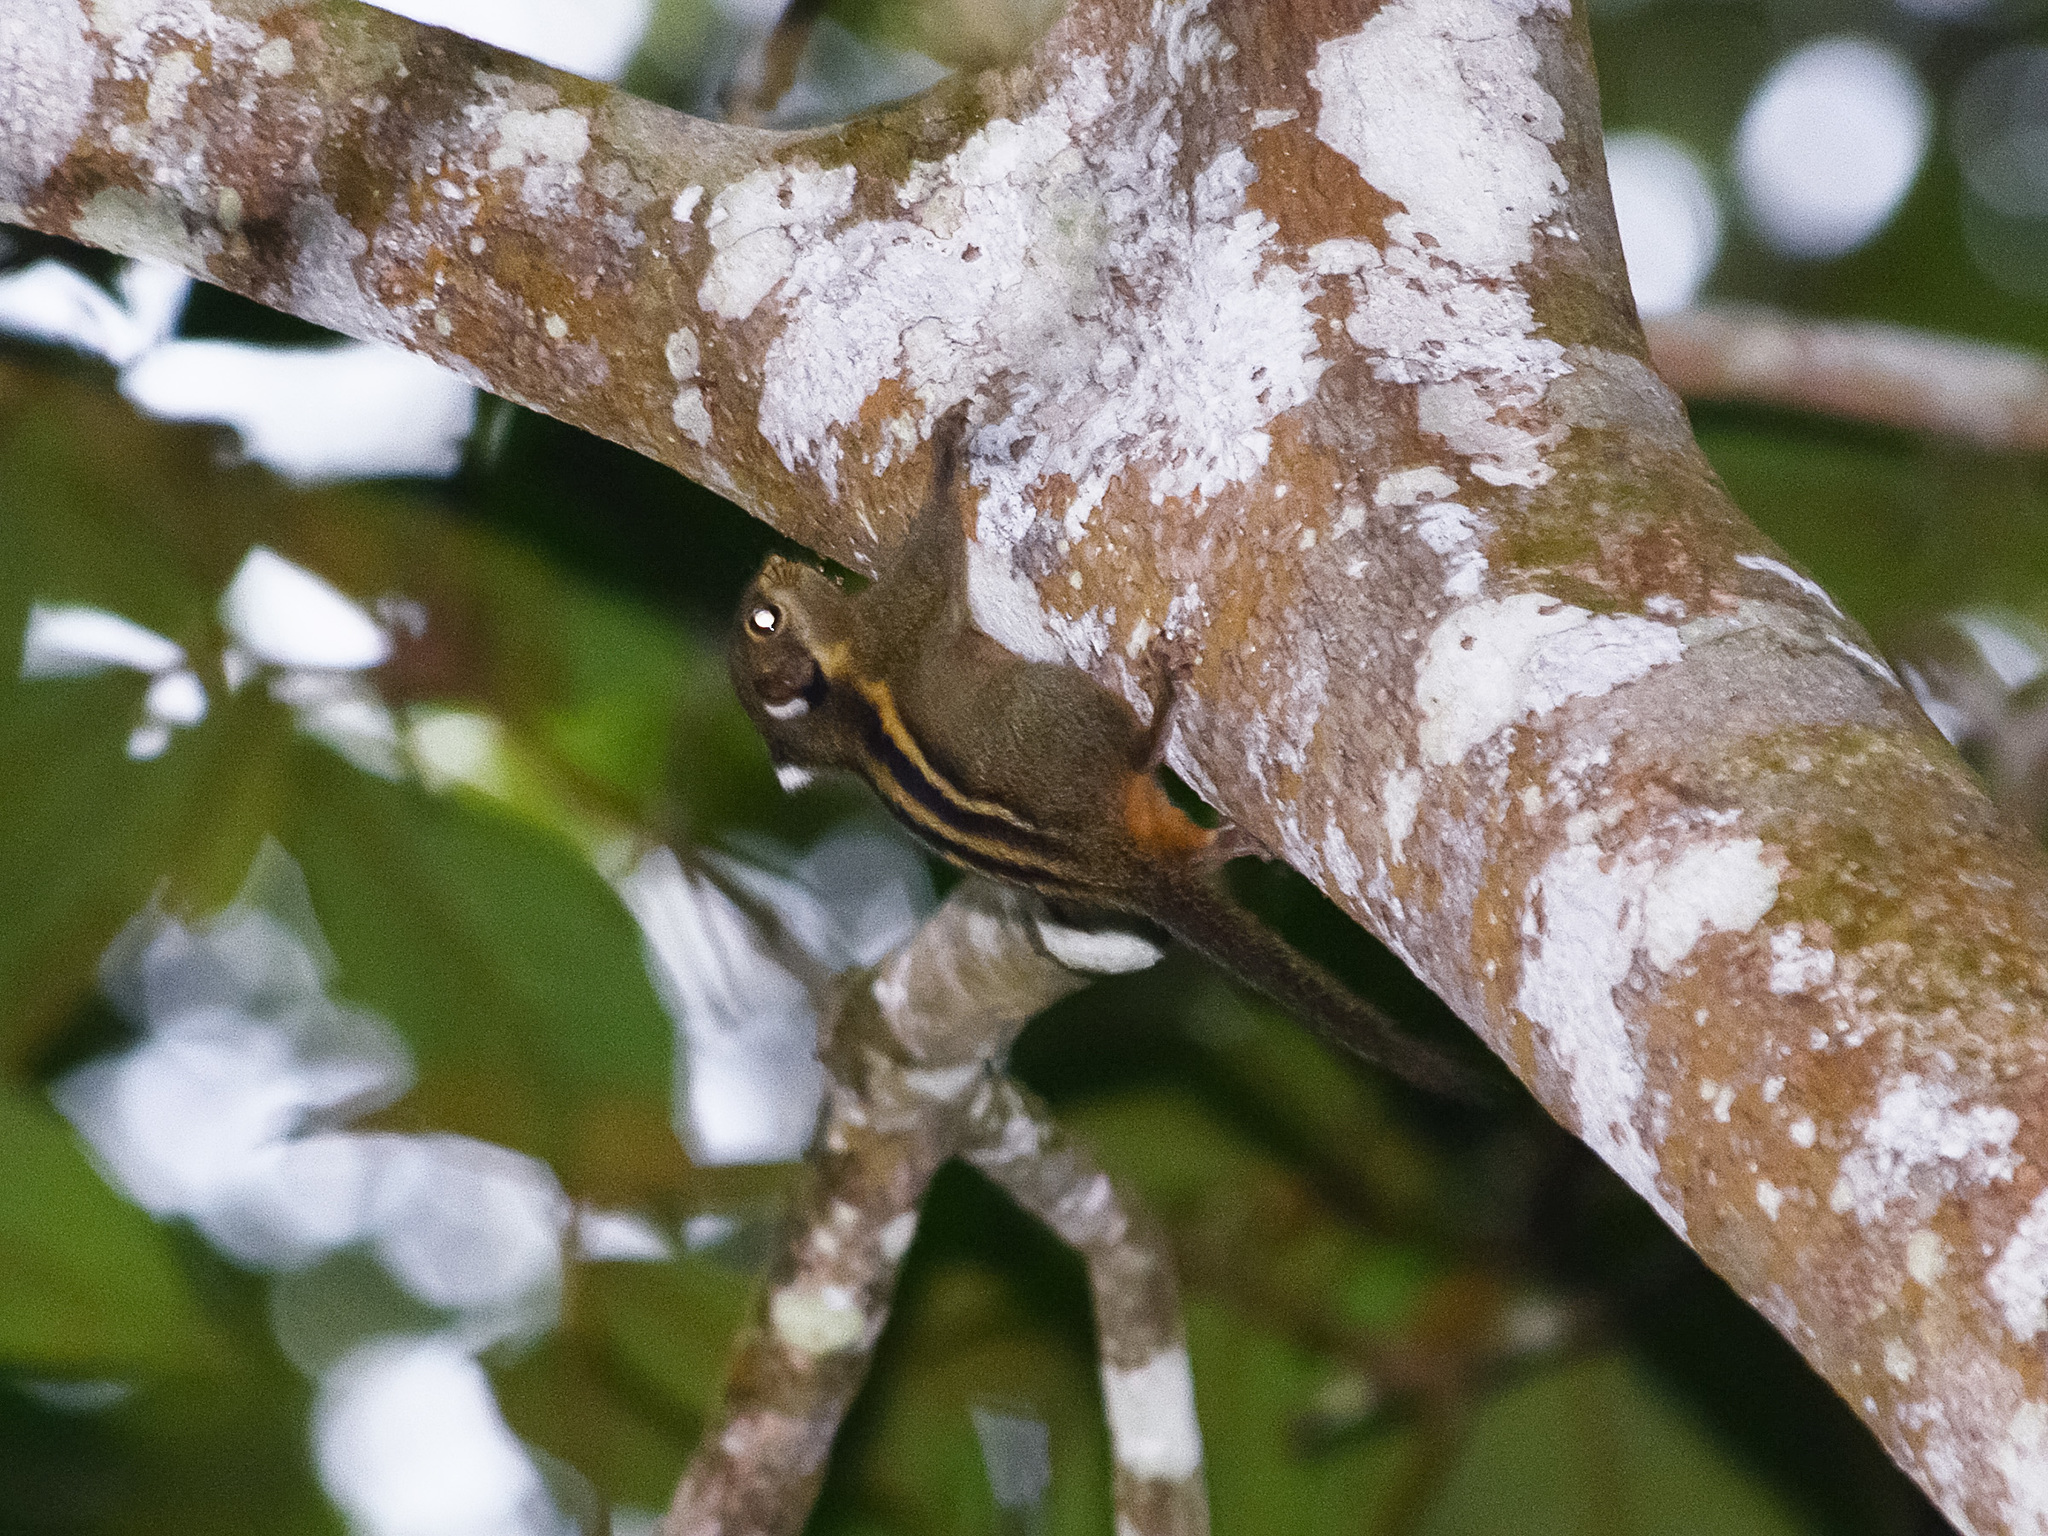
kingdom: Animalia
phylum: Chordata
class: Mammalia
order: Rodentia
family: Sciuridae
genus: Tamiops
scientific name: Tamiops mcclellandii
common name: Himalayan striped squirrel
